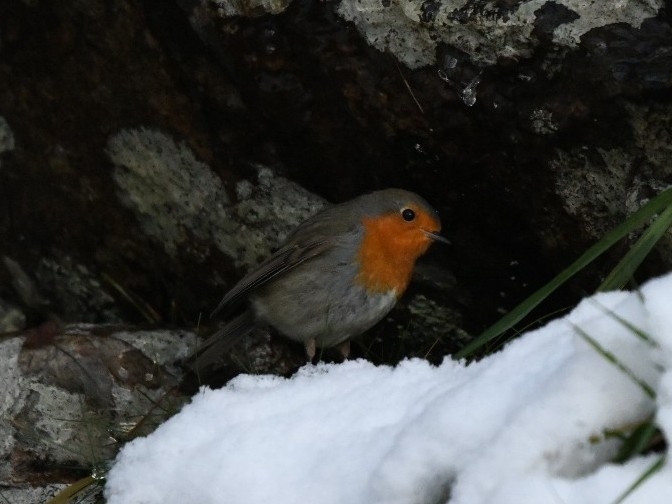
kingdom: Animalia
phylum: Chordata
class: Aves
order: Passeriformes
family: Muscicapidae
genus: Erithacus
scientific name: Erithacus rubecula
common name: European robin
